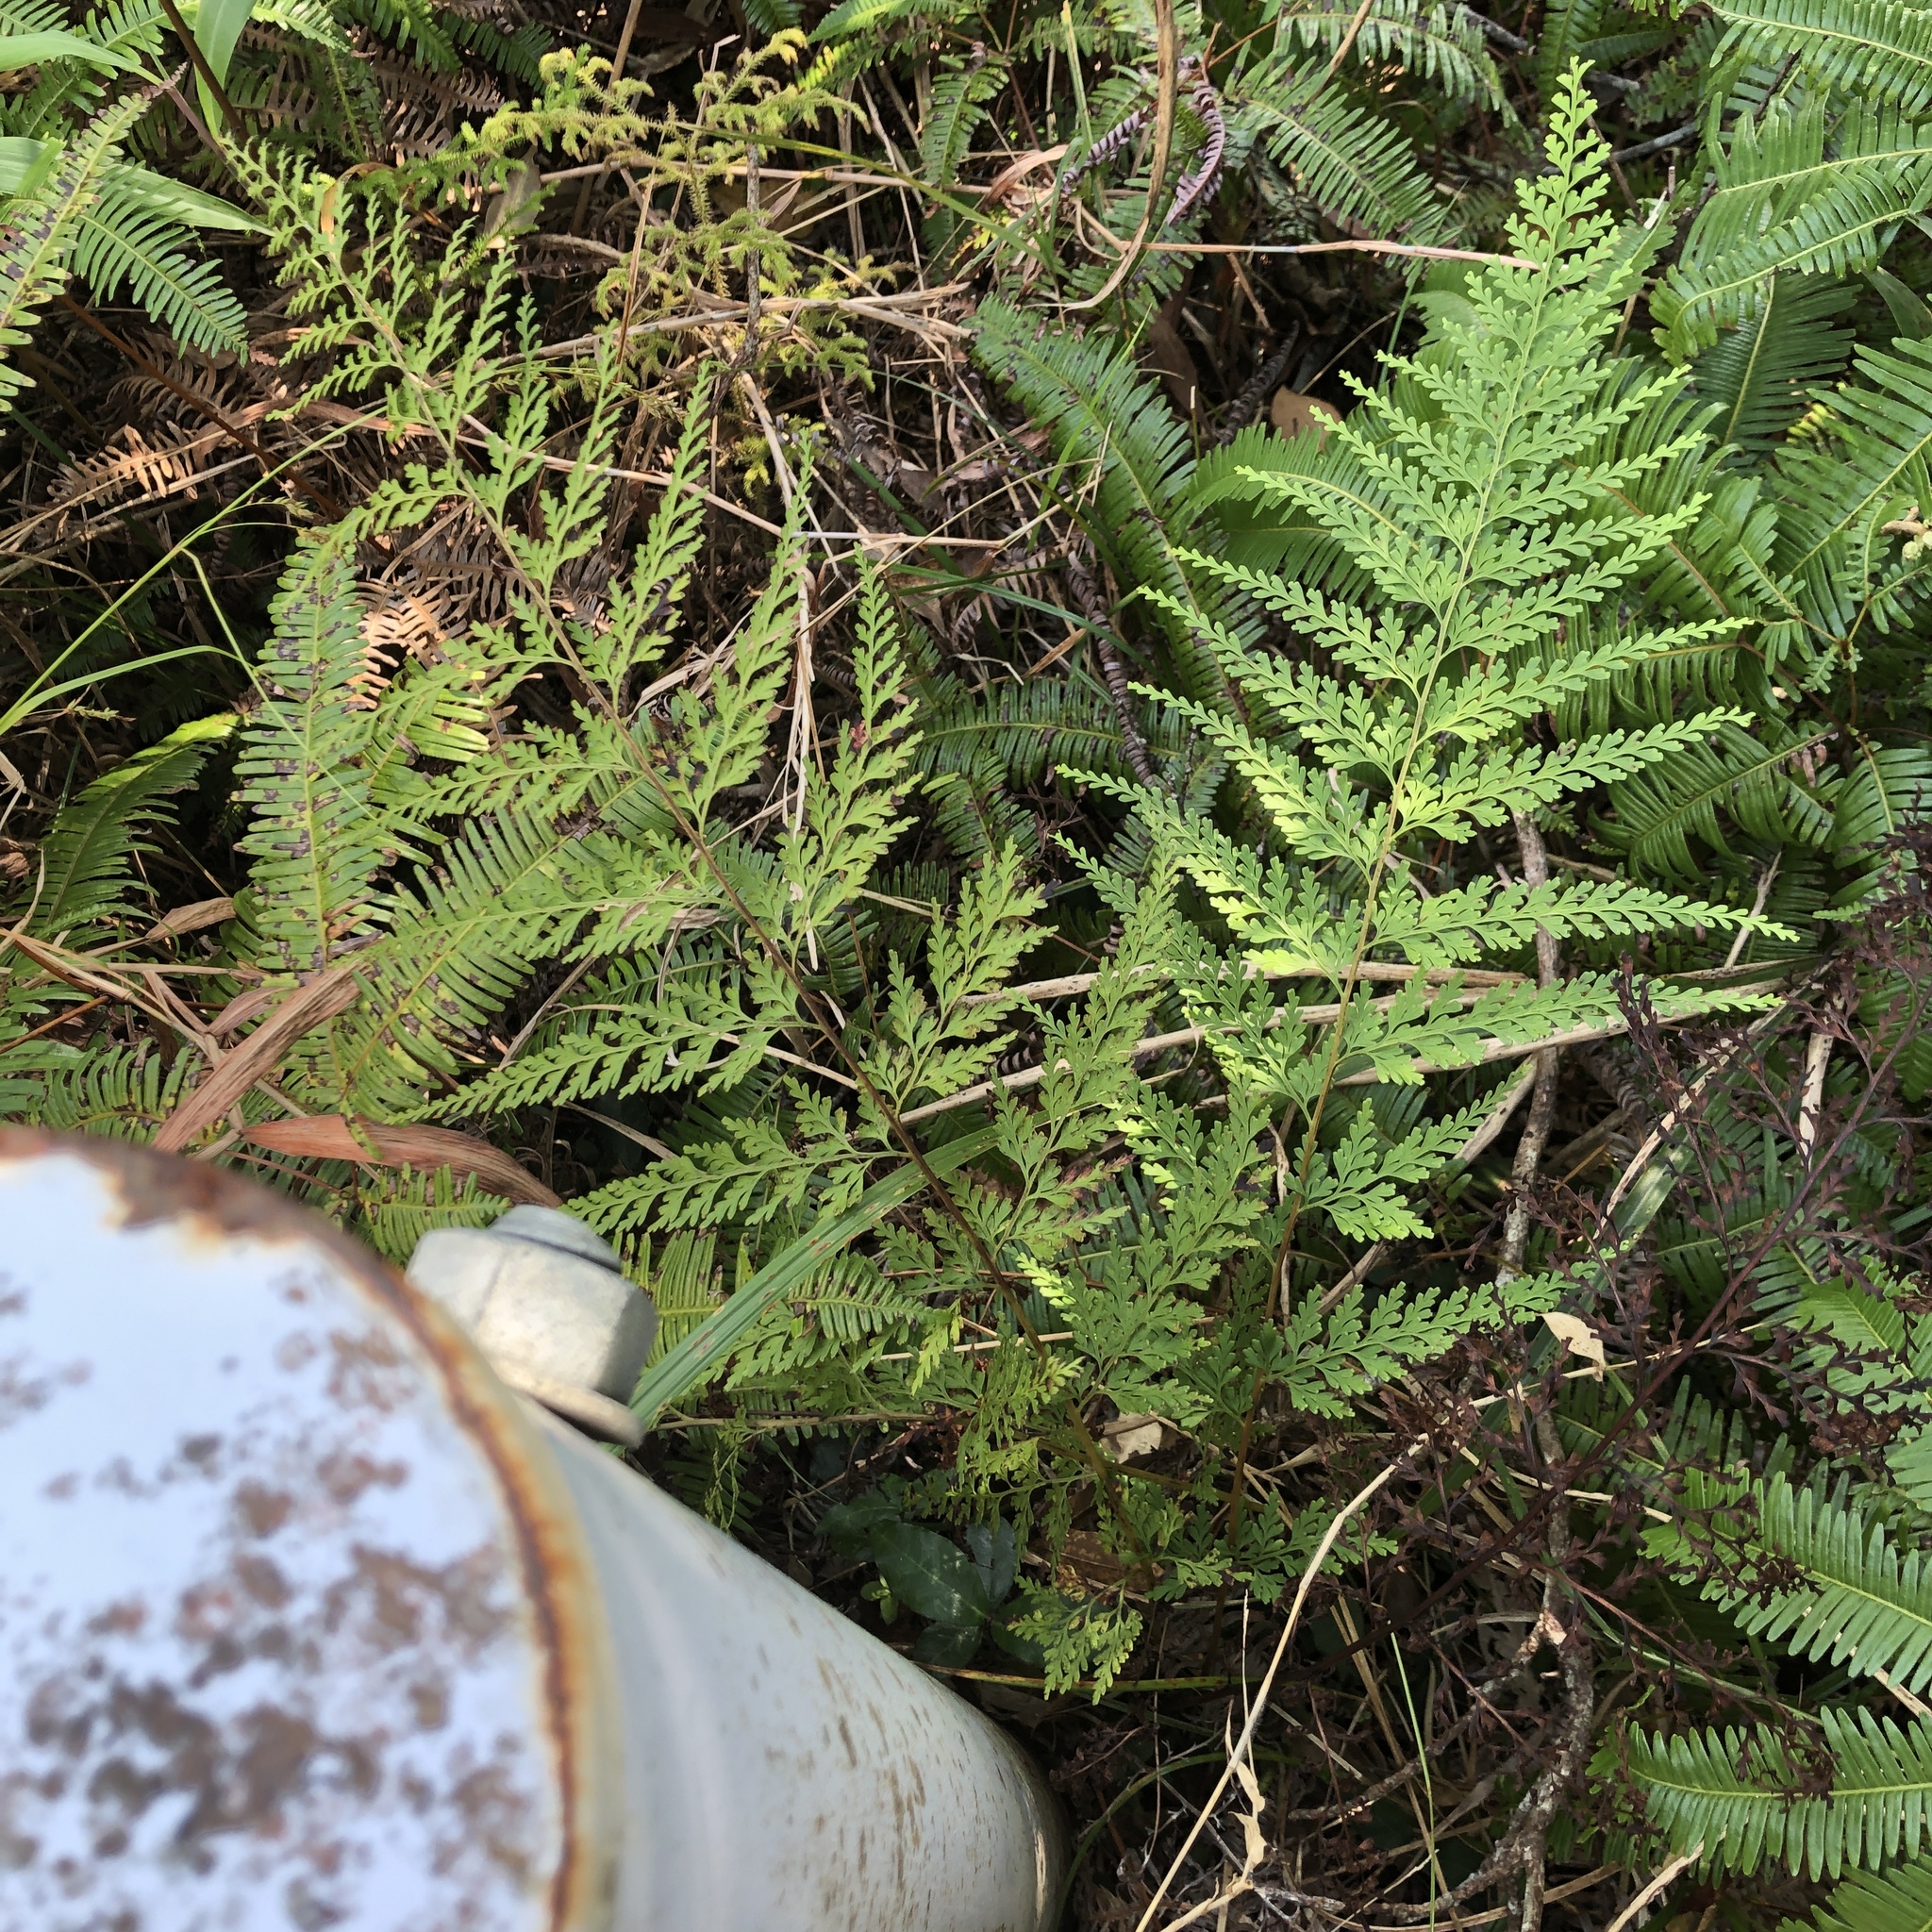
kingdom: Plantae
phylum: Tracheophyta
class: Polypodiopsida
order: Polypodiales
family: Lindsaeaceae
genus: Odontosoria
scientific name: Odontosoria chinensis
